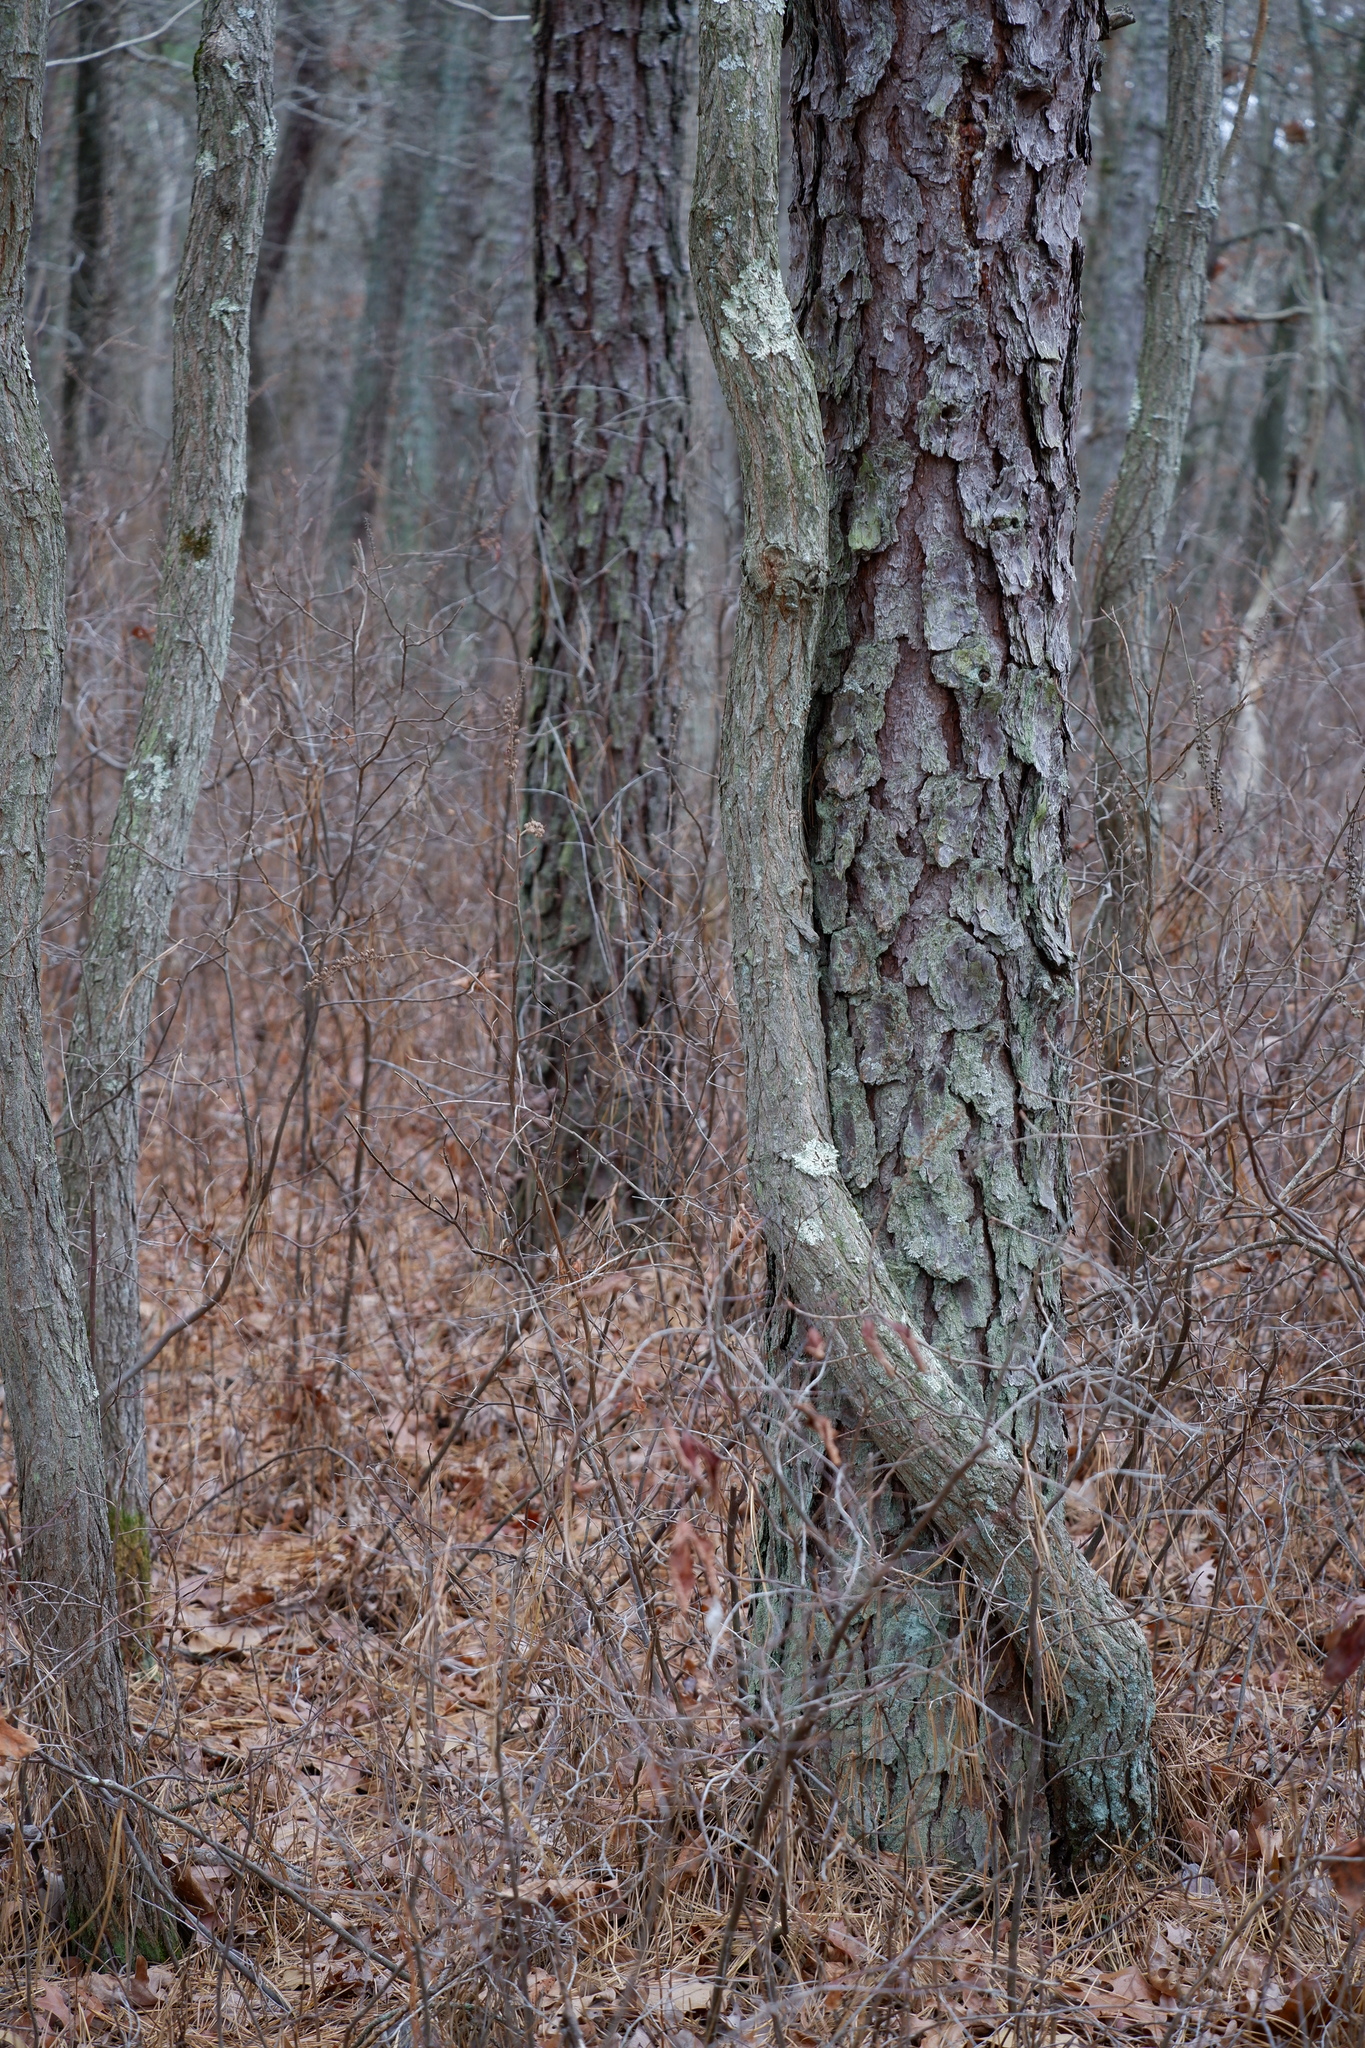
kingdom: Plantae
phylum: Tracheophyta
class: Magnoliopsida
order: Laurales
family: Lauraceae
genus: Sassafras
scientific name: Sassafras albidum
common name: Sassafras
